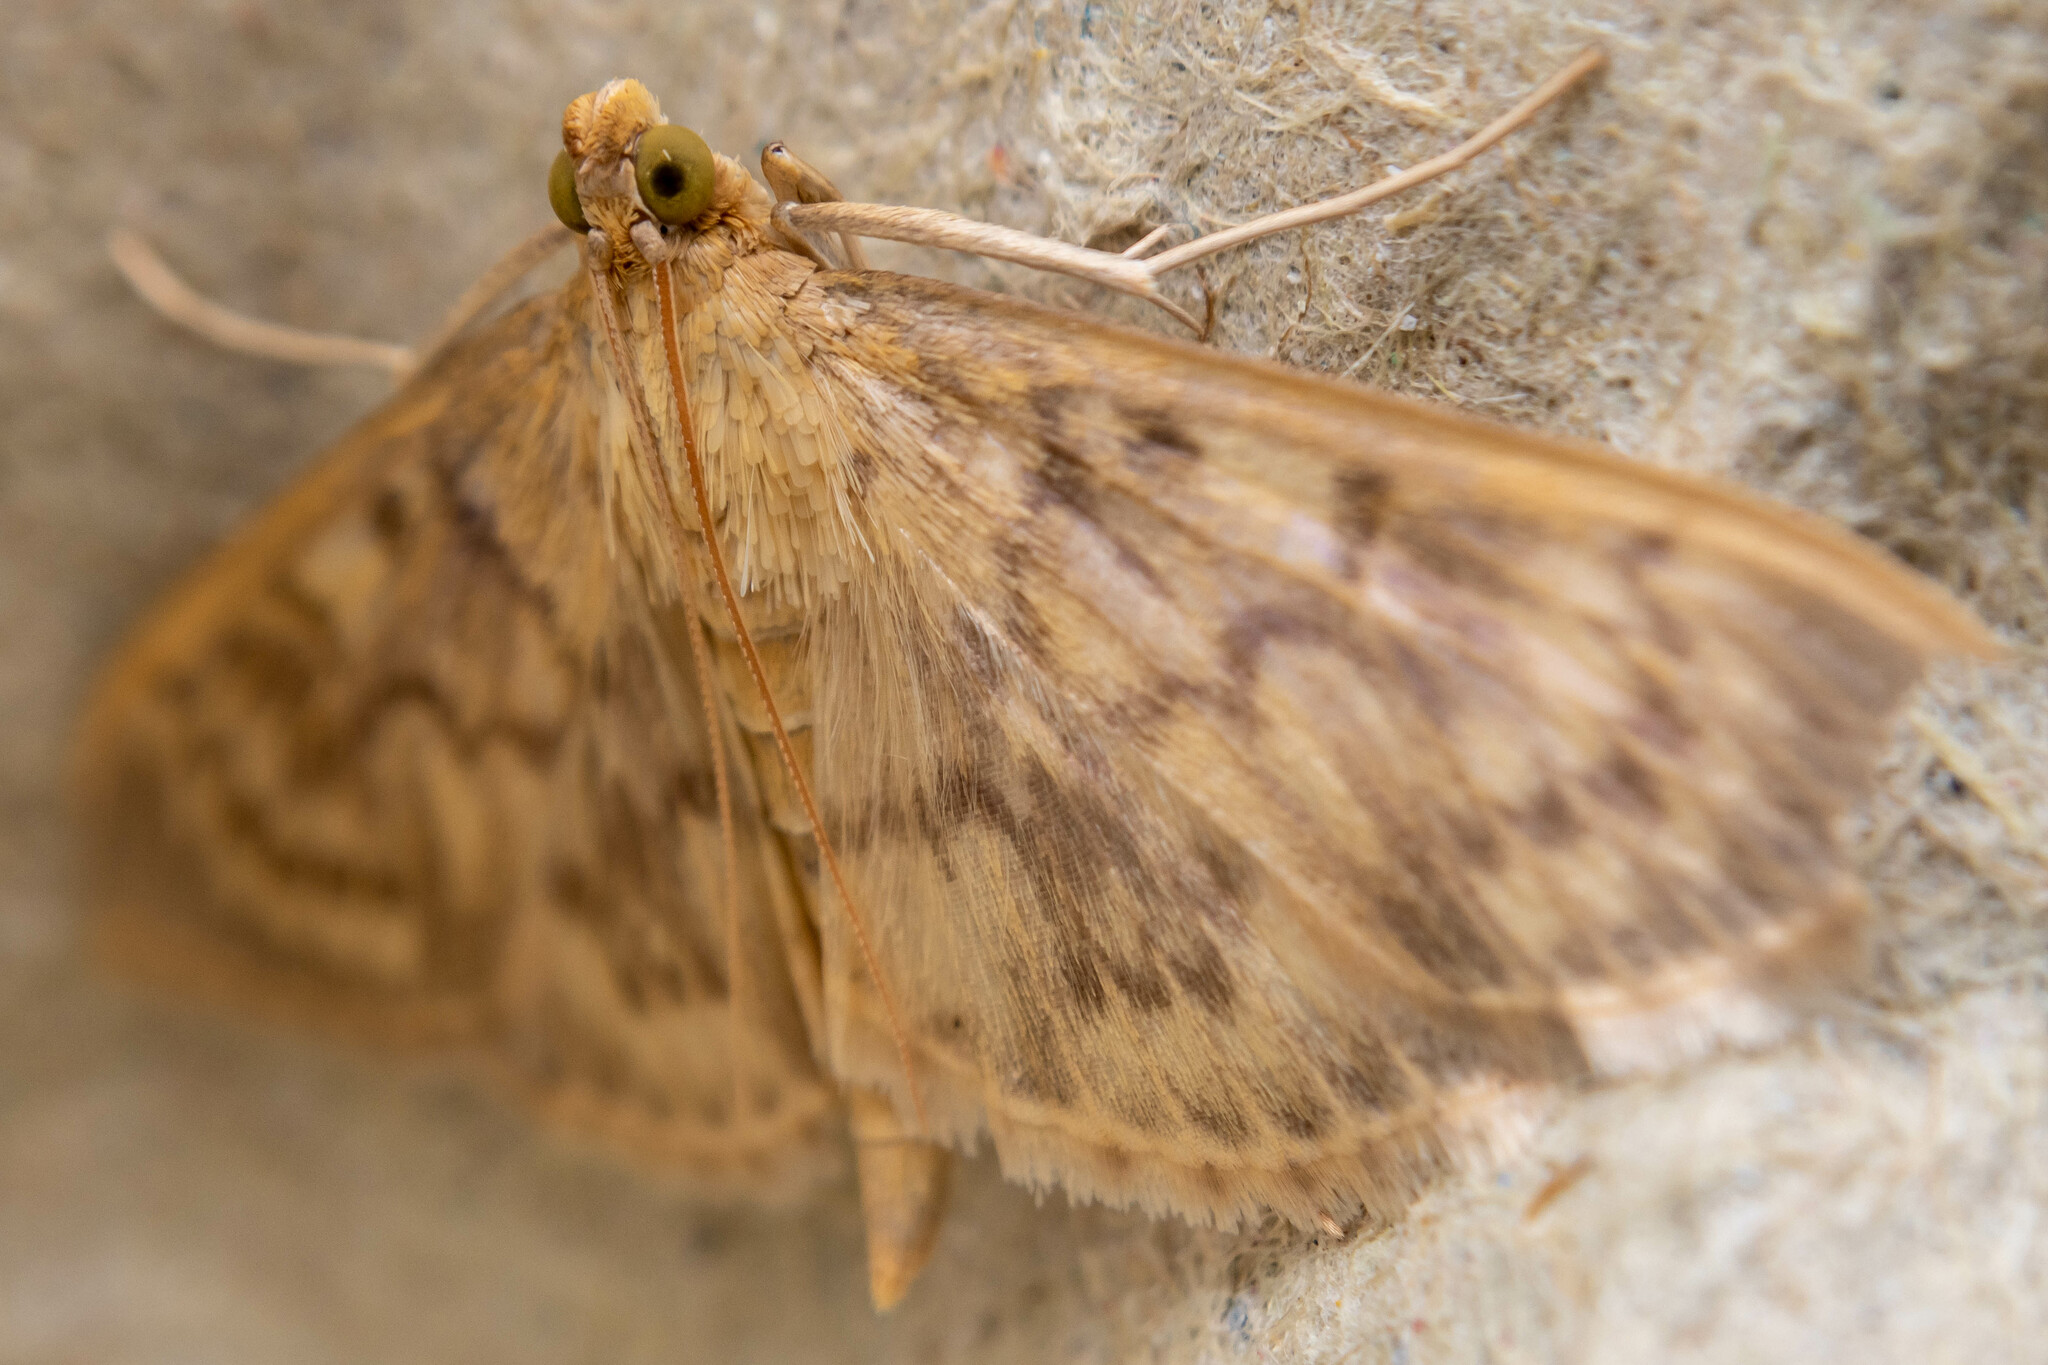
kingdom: Animalia
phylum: Arthropoda
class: Insecta
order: Lepidoptera
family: Crambidae
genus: Patania
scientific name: Patania ruralis
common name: Mother of pearl
